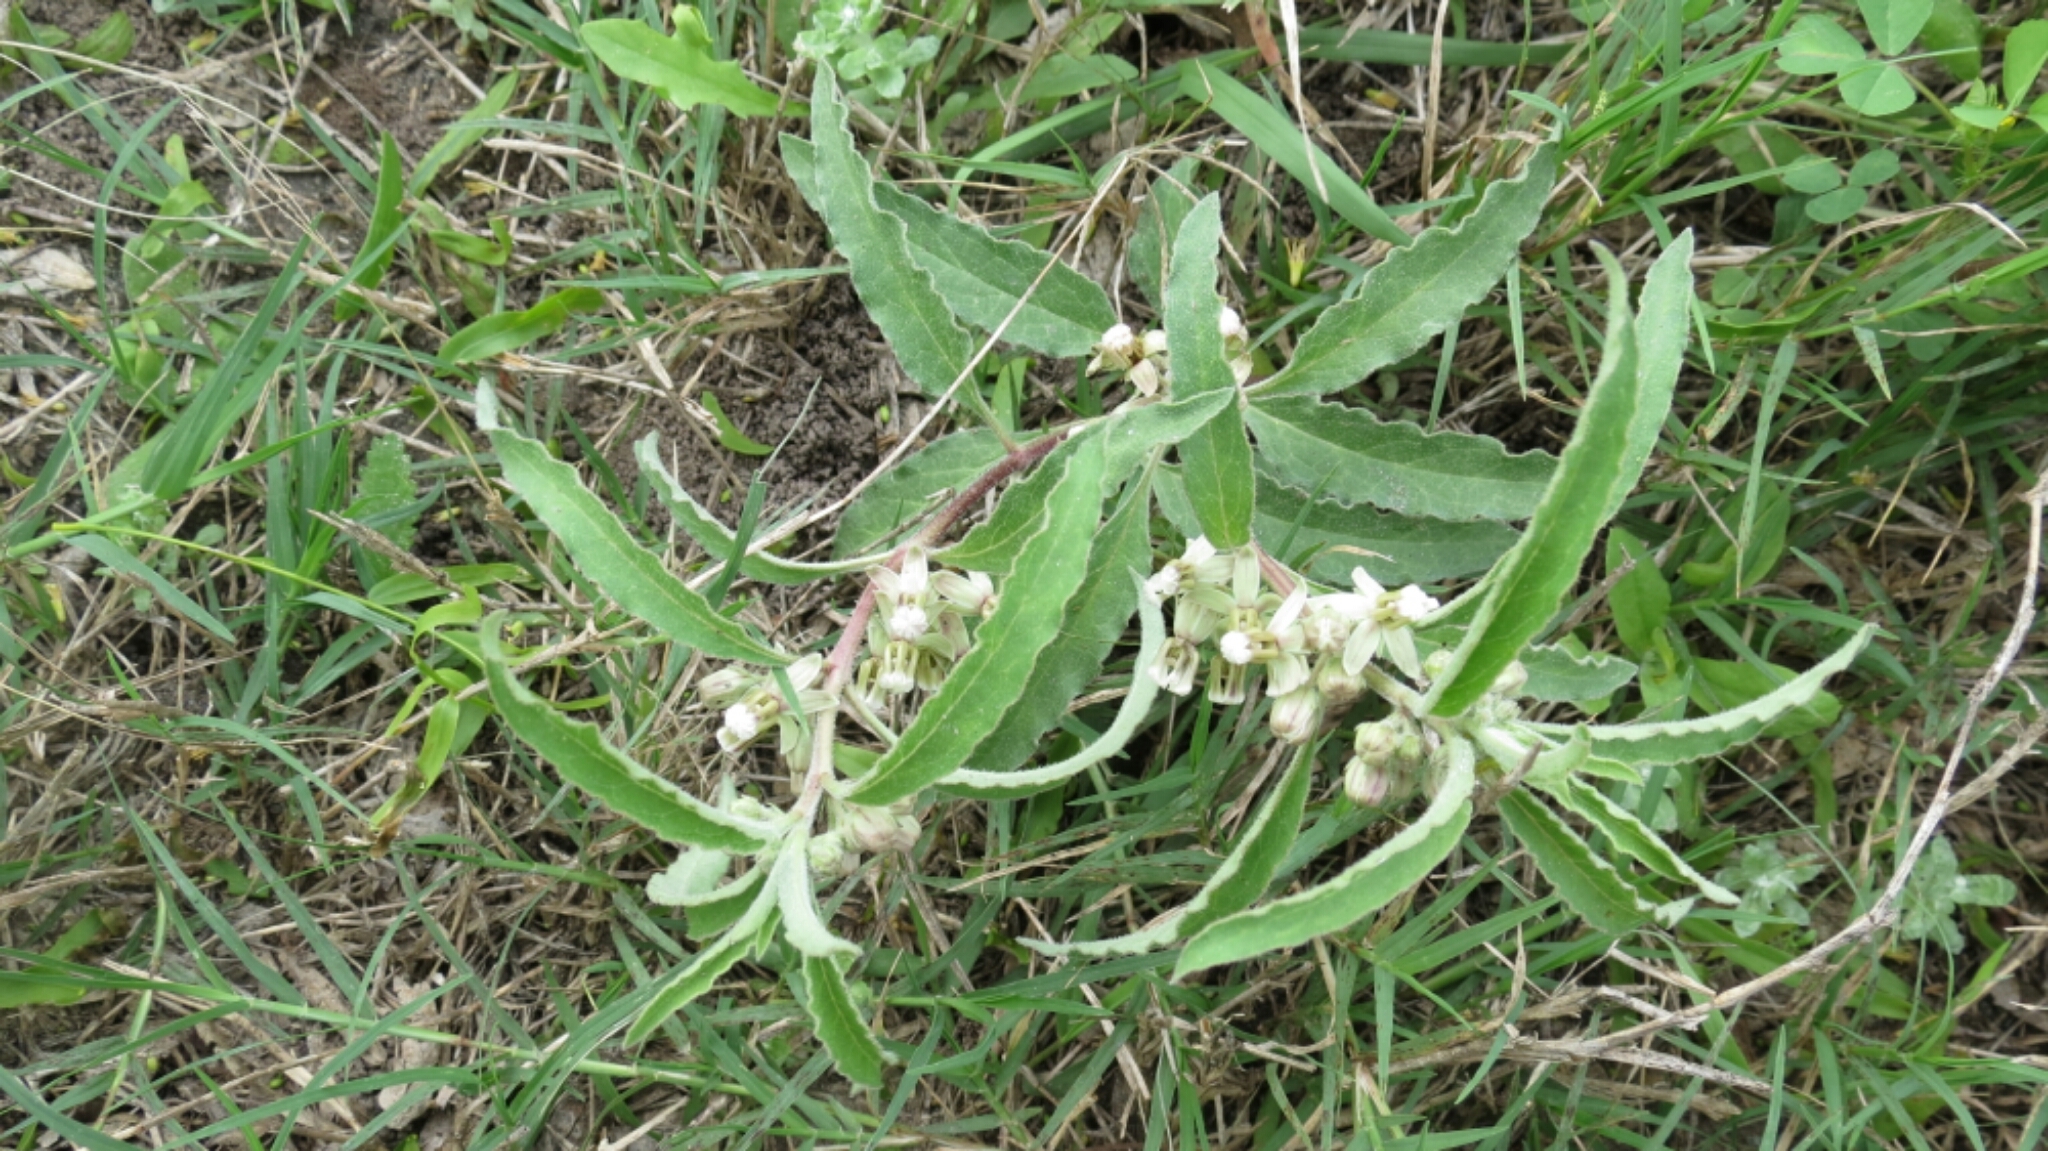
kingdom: Plantae
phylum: Tracheophyta
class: Magnoliopsida
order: Gentianales
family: Apocynaceae
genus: Asclepias
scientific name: Asclepias emoryi
